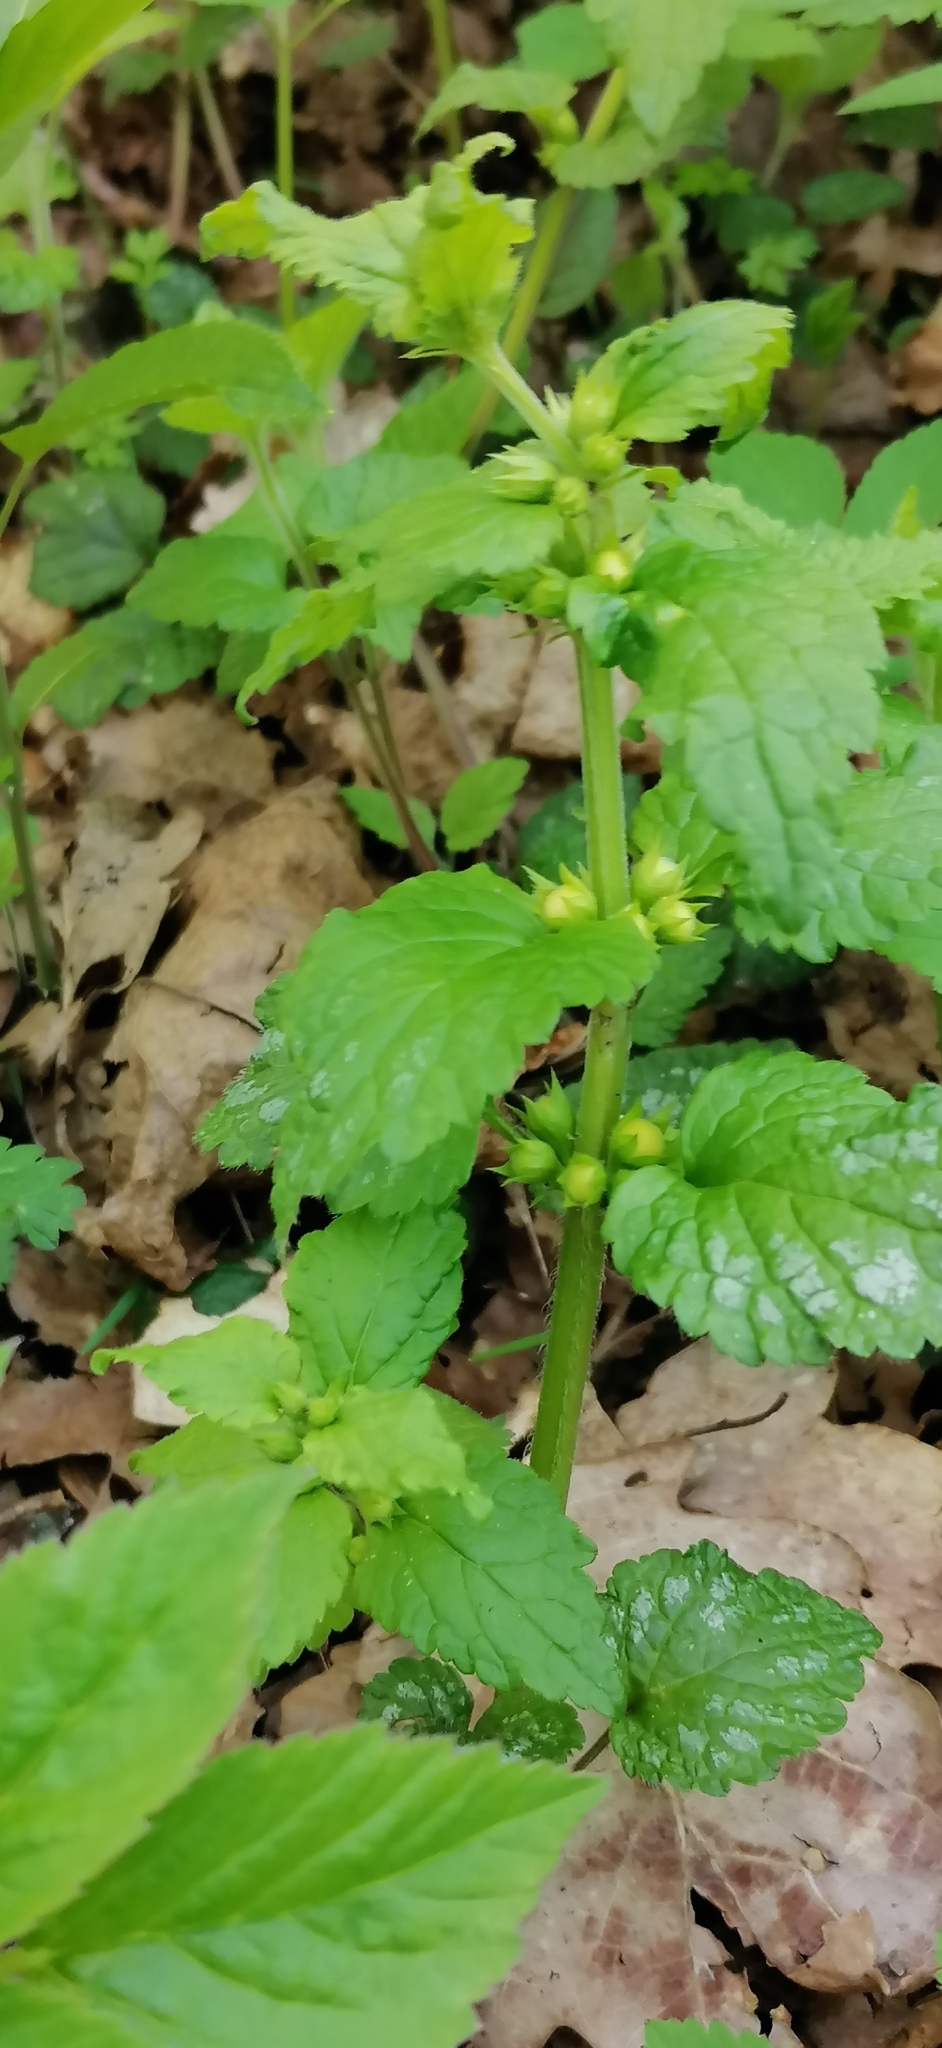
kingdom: Plantae
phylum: Tracheophyta
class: Magnoliopsida
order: Lamiales
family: Lamiaceae
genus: Lamium
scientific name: Lamium galeobdolon
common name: Yellow archangel
